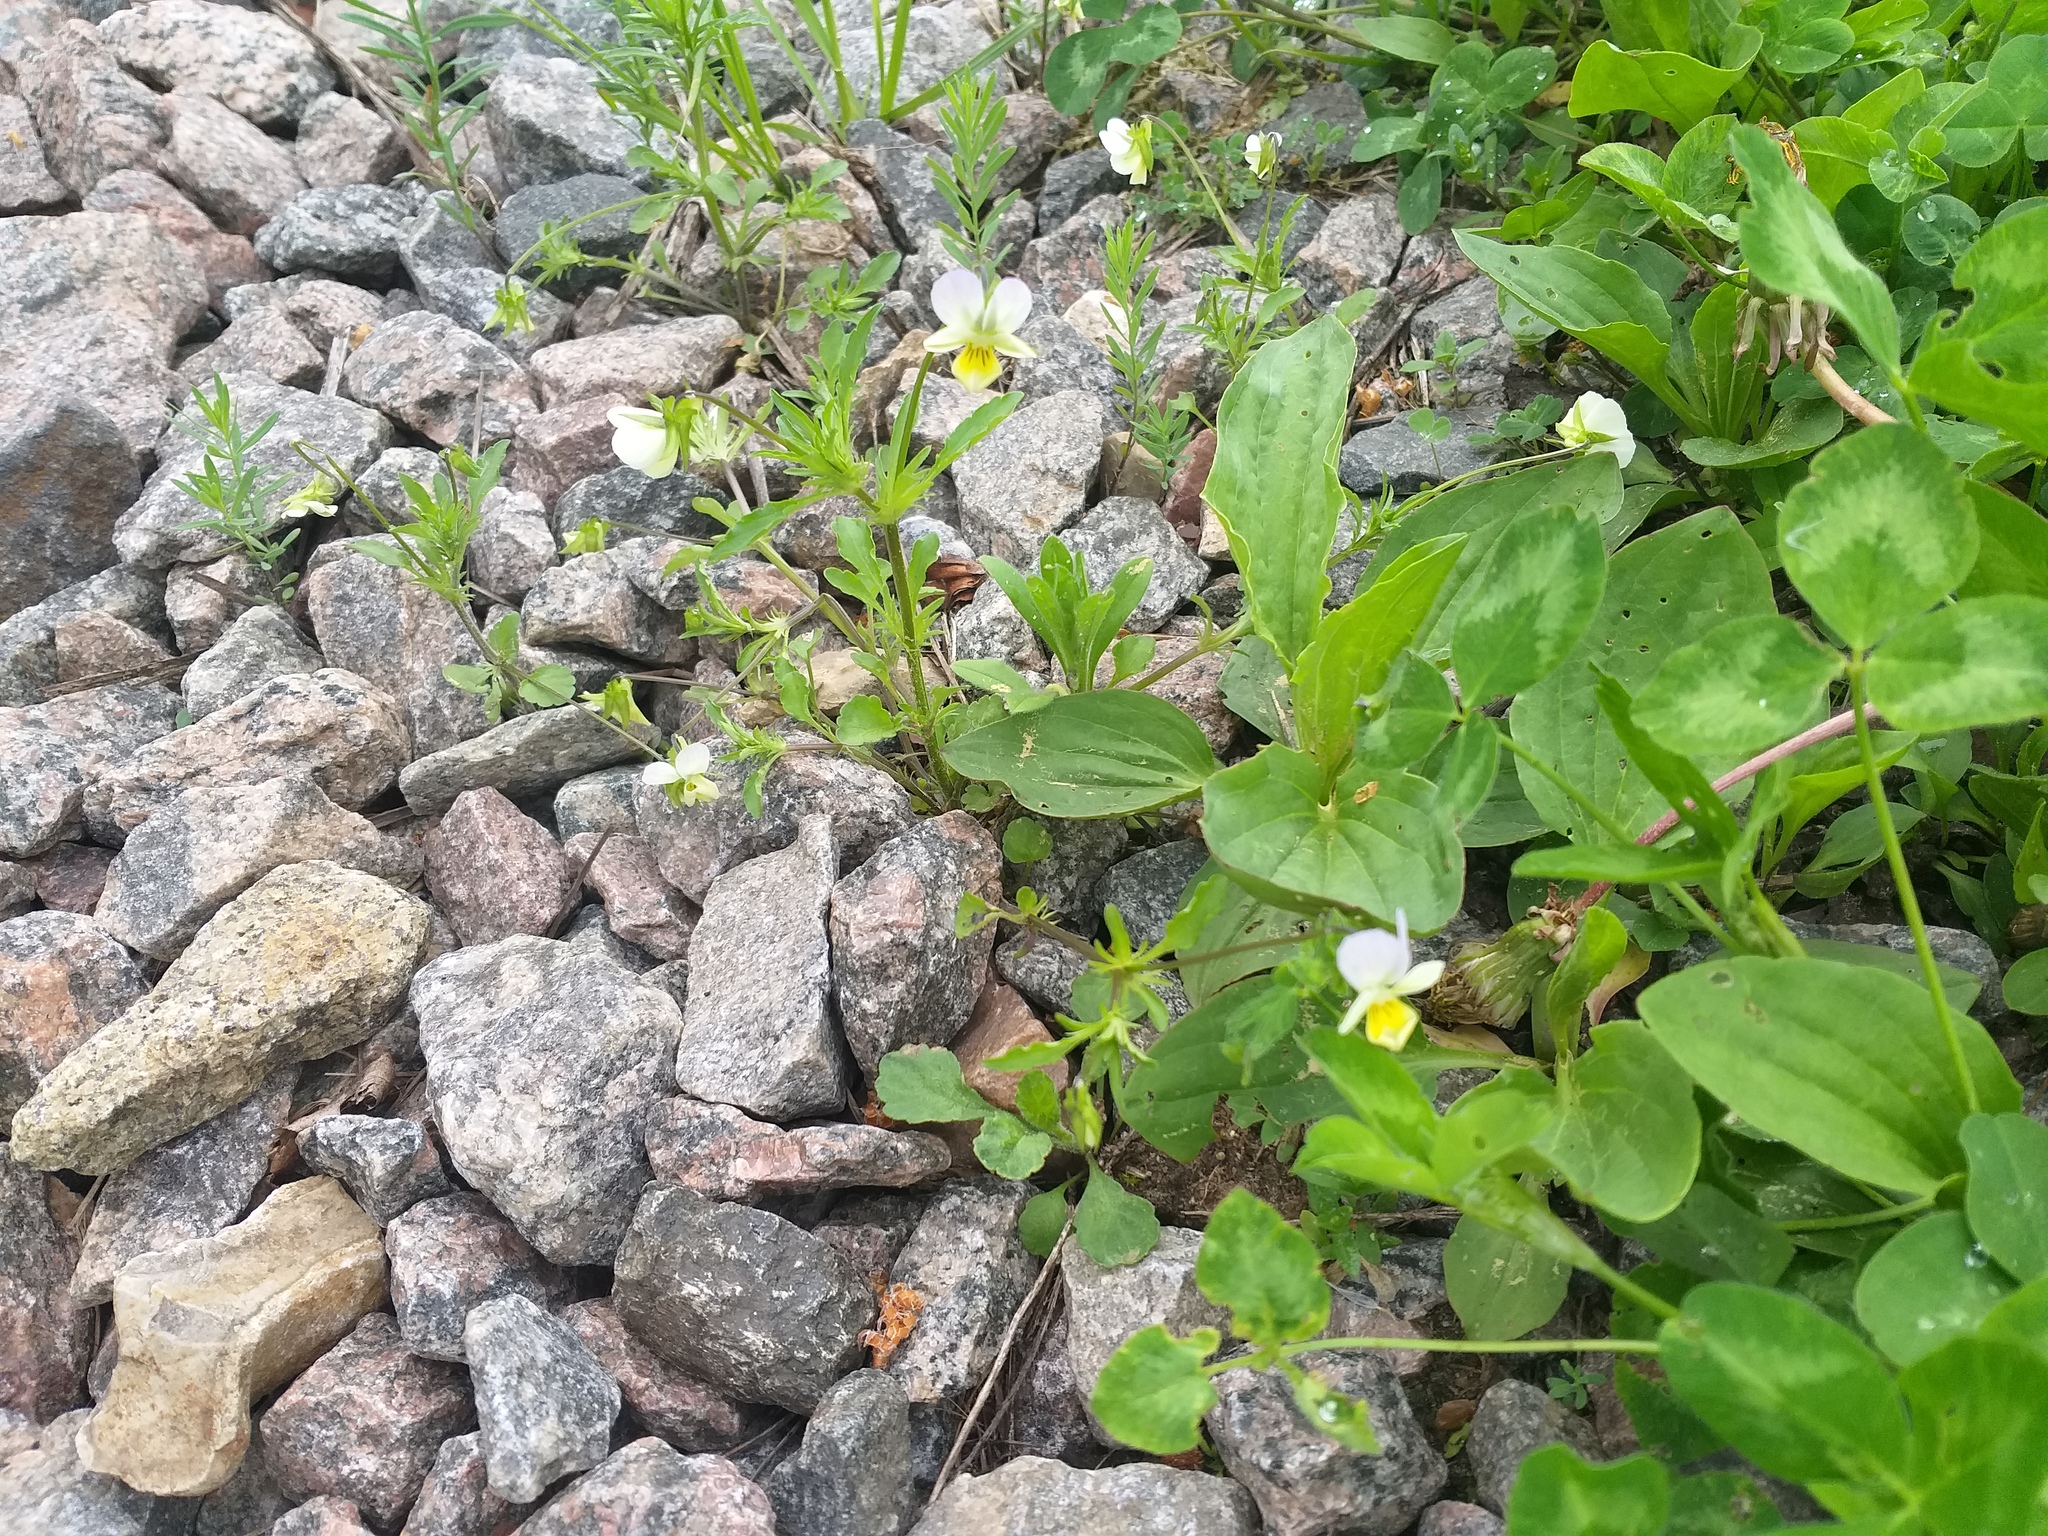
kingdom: Plantae
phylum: Tracheophyta
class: Magnoliopsida
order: Malpighiales
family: Violaceae
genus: Viola
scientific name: Viola contempta
